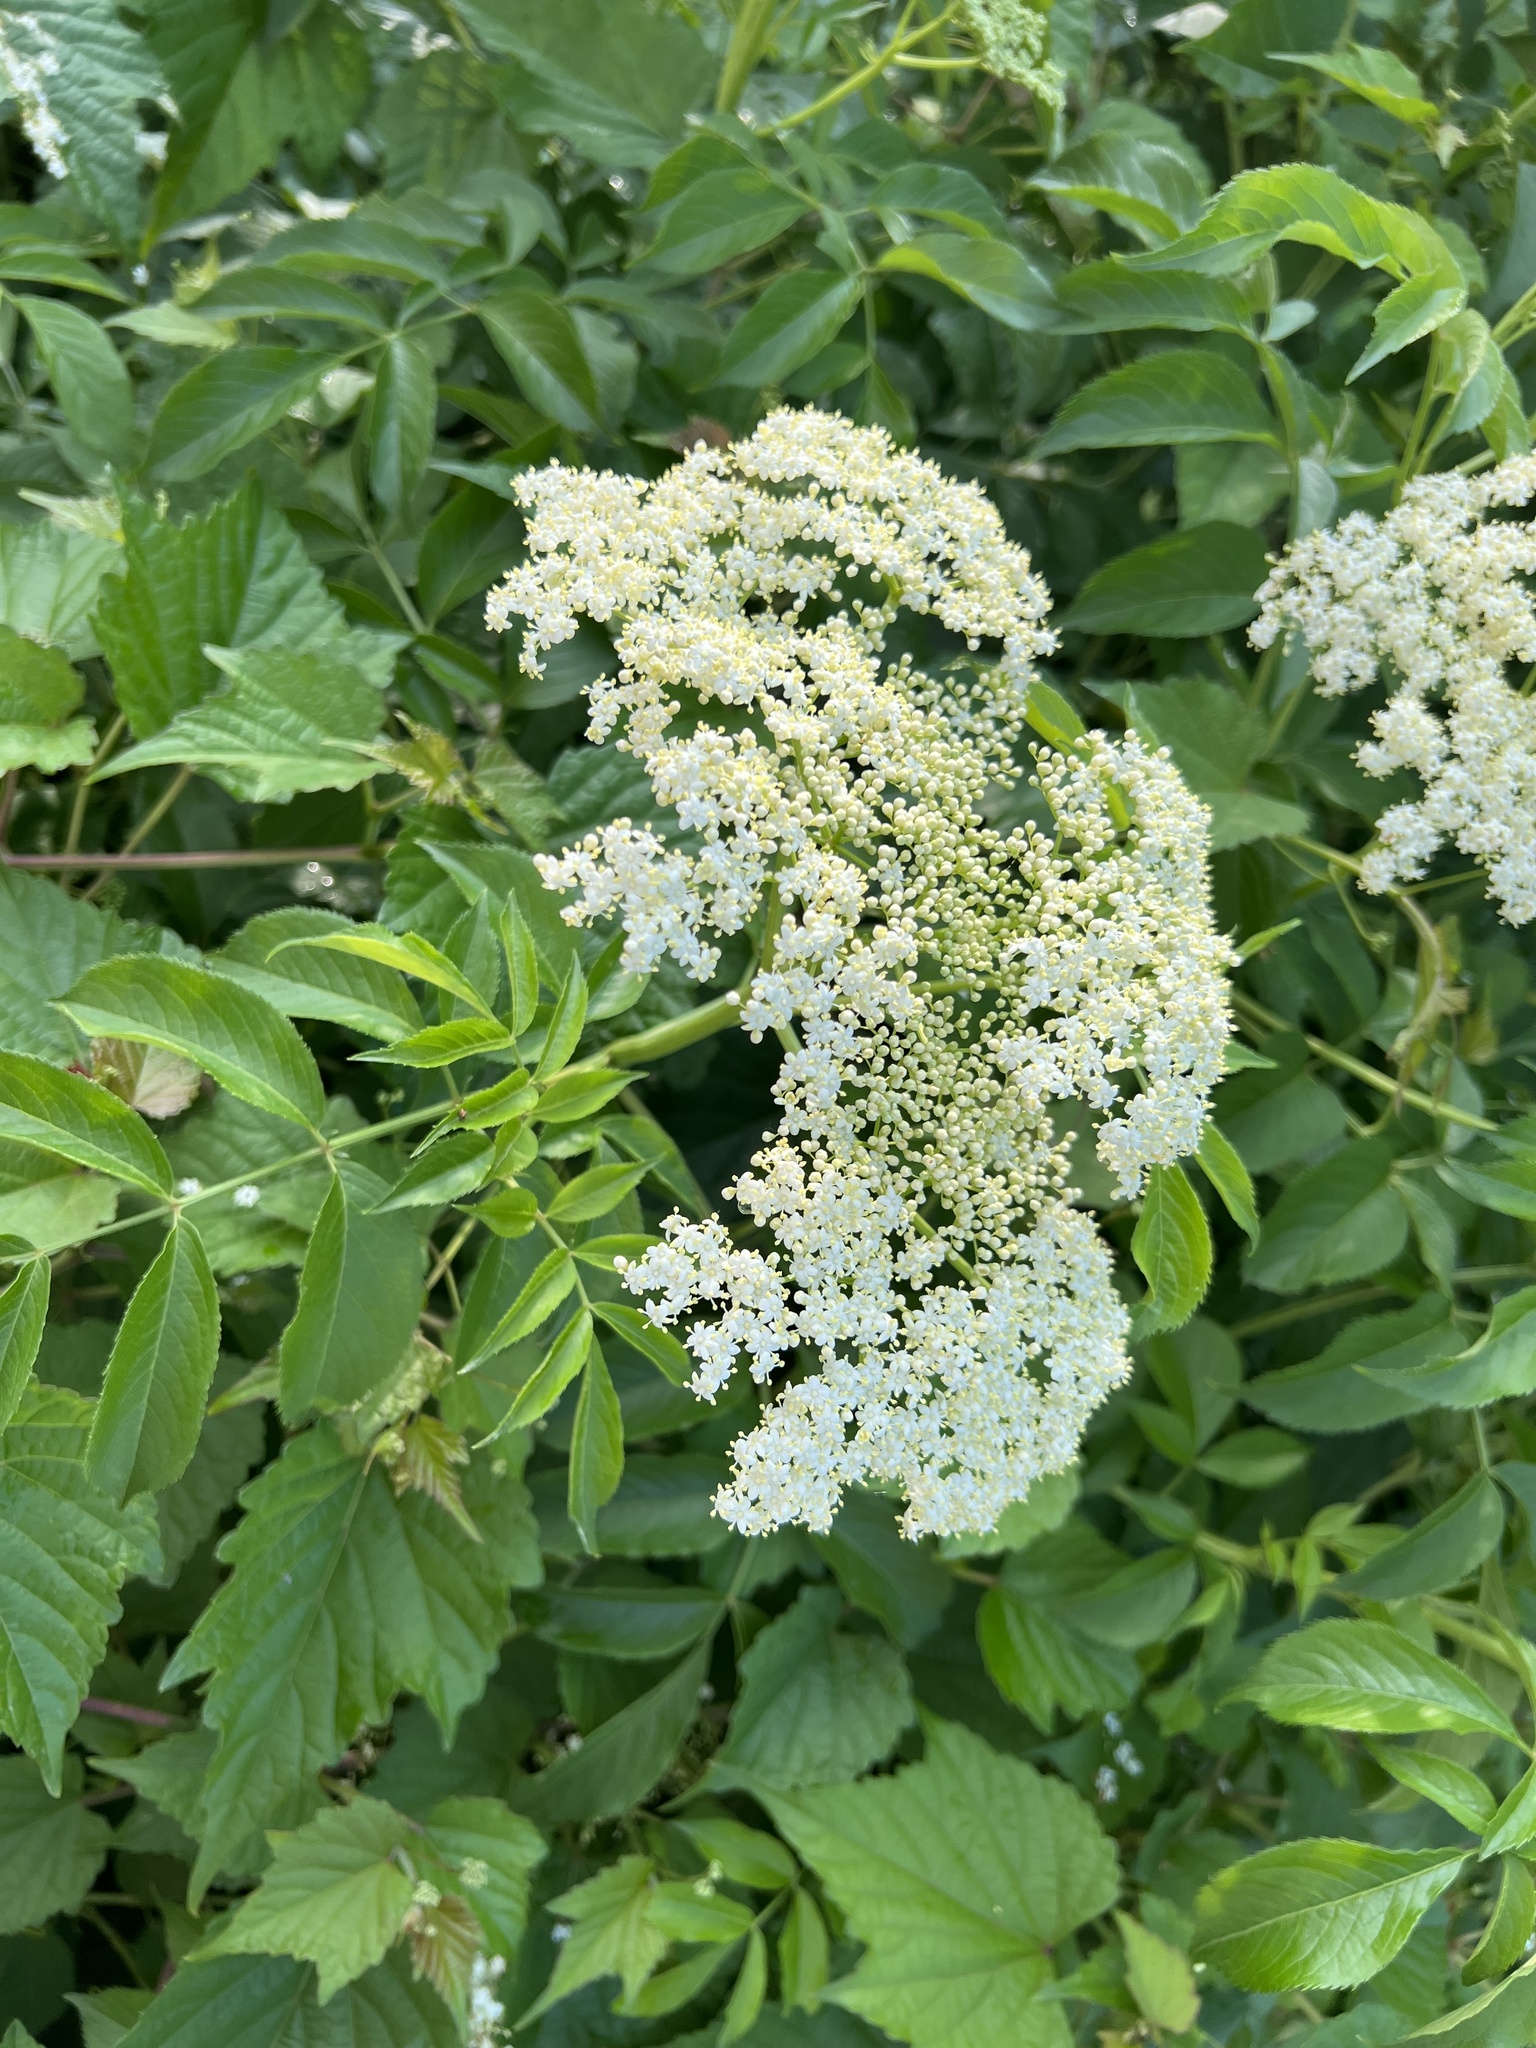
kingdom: Plantae
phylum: Tracheophyta
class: Magnoliopsida
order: Dipsacales
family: Viburnaceae
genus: Sambucus
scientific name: Sambucus canadensis
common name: American elder
